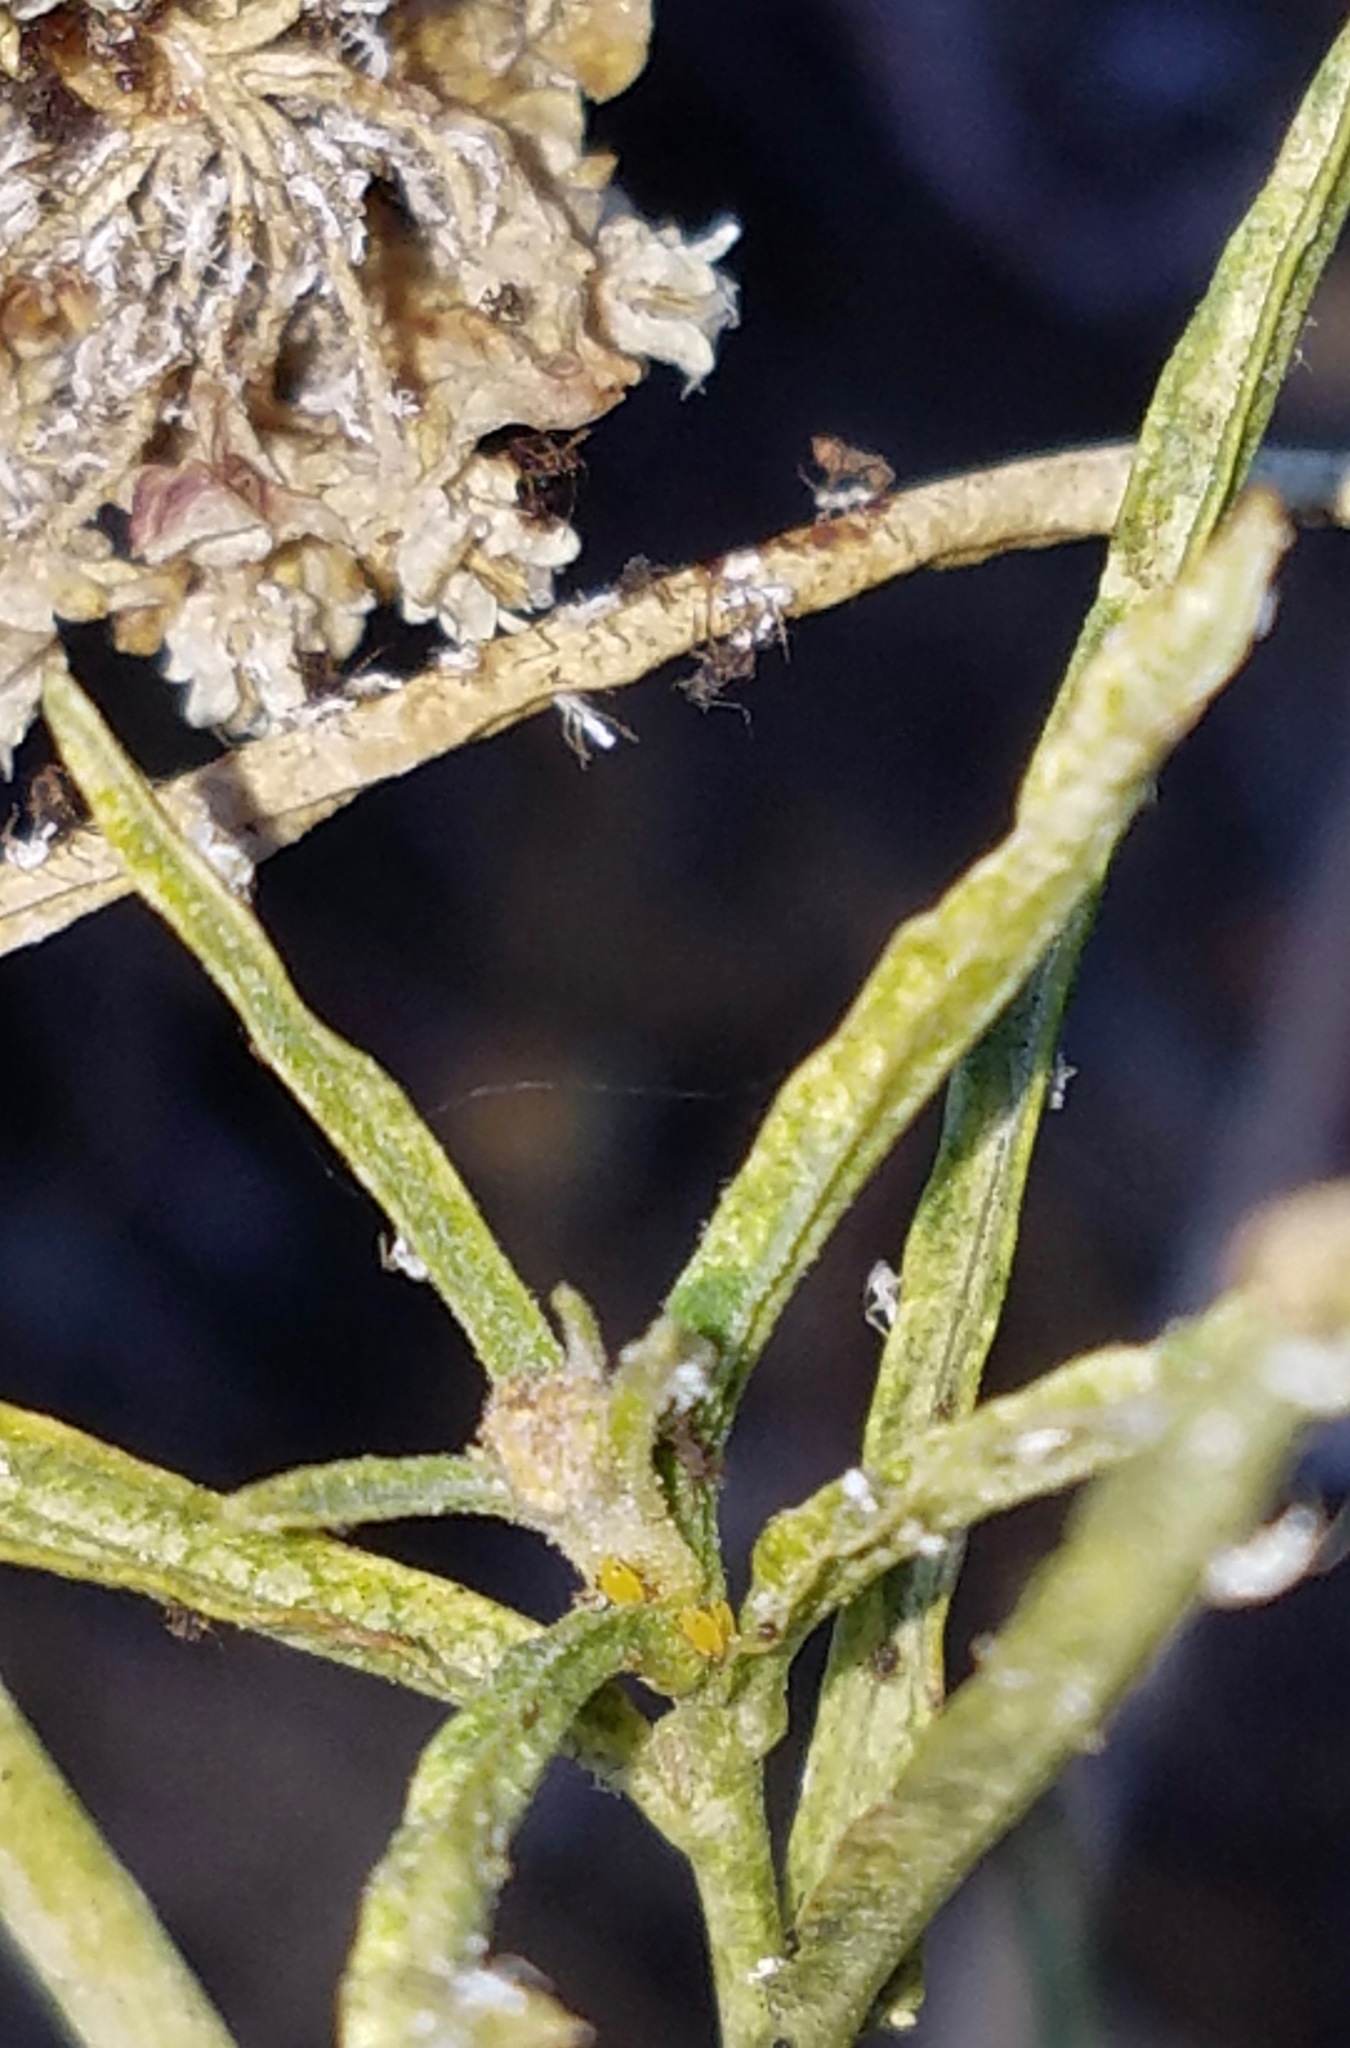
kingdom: Plantae
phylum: Tracheophyta
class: Magnoliopsida
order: Gentianales
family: Apocynaceae
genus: Asclepias
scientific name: Asclepias fascicularis
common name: Mexican milkweed
